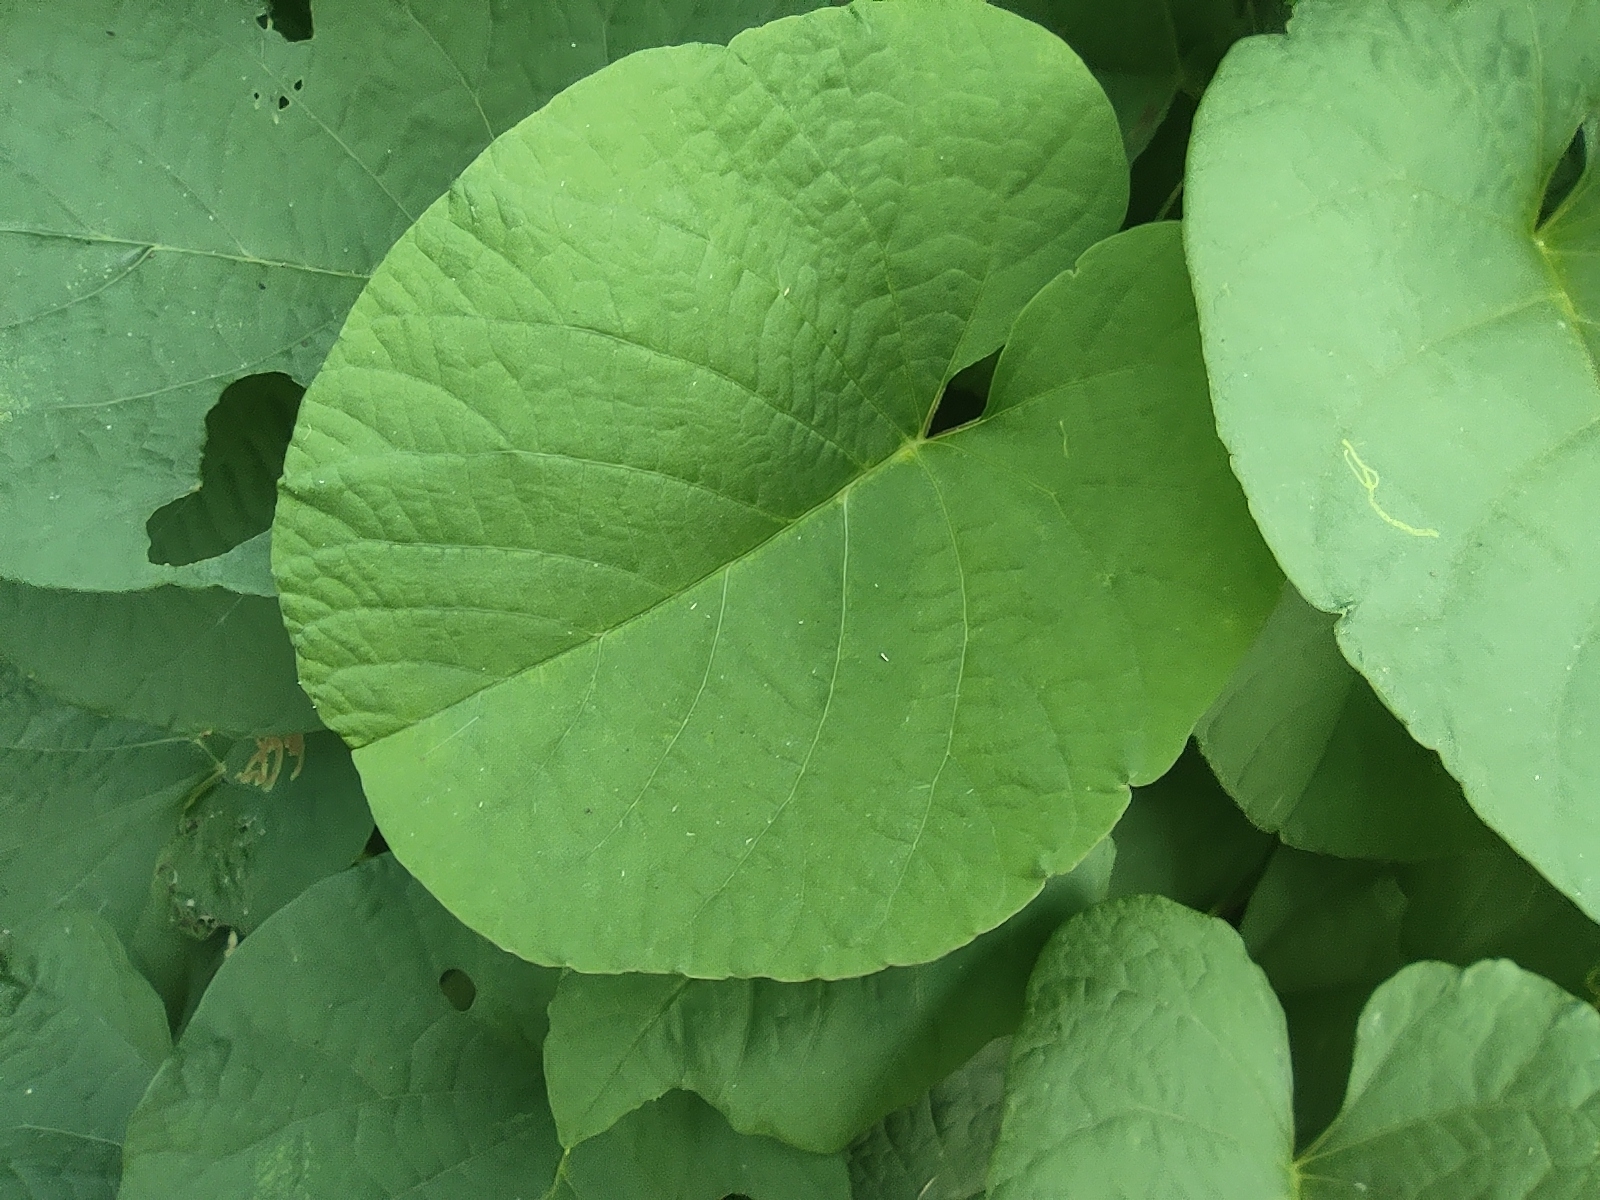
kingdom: Plantae
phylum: Tracheophyta
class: Magnoliopsida
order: Solanales
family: Convolvulaceae
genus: Camonea
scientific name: Camonea umbellata
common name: Hogvine
